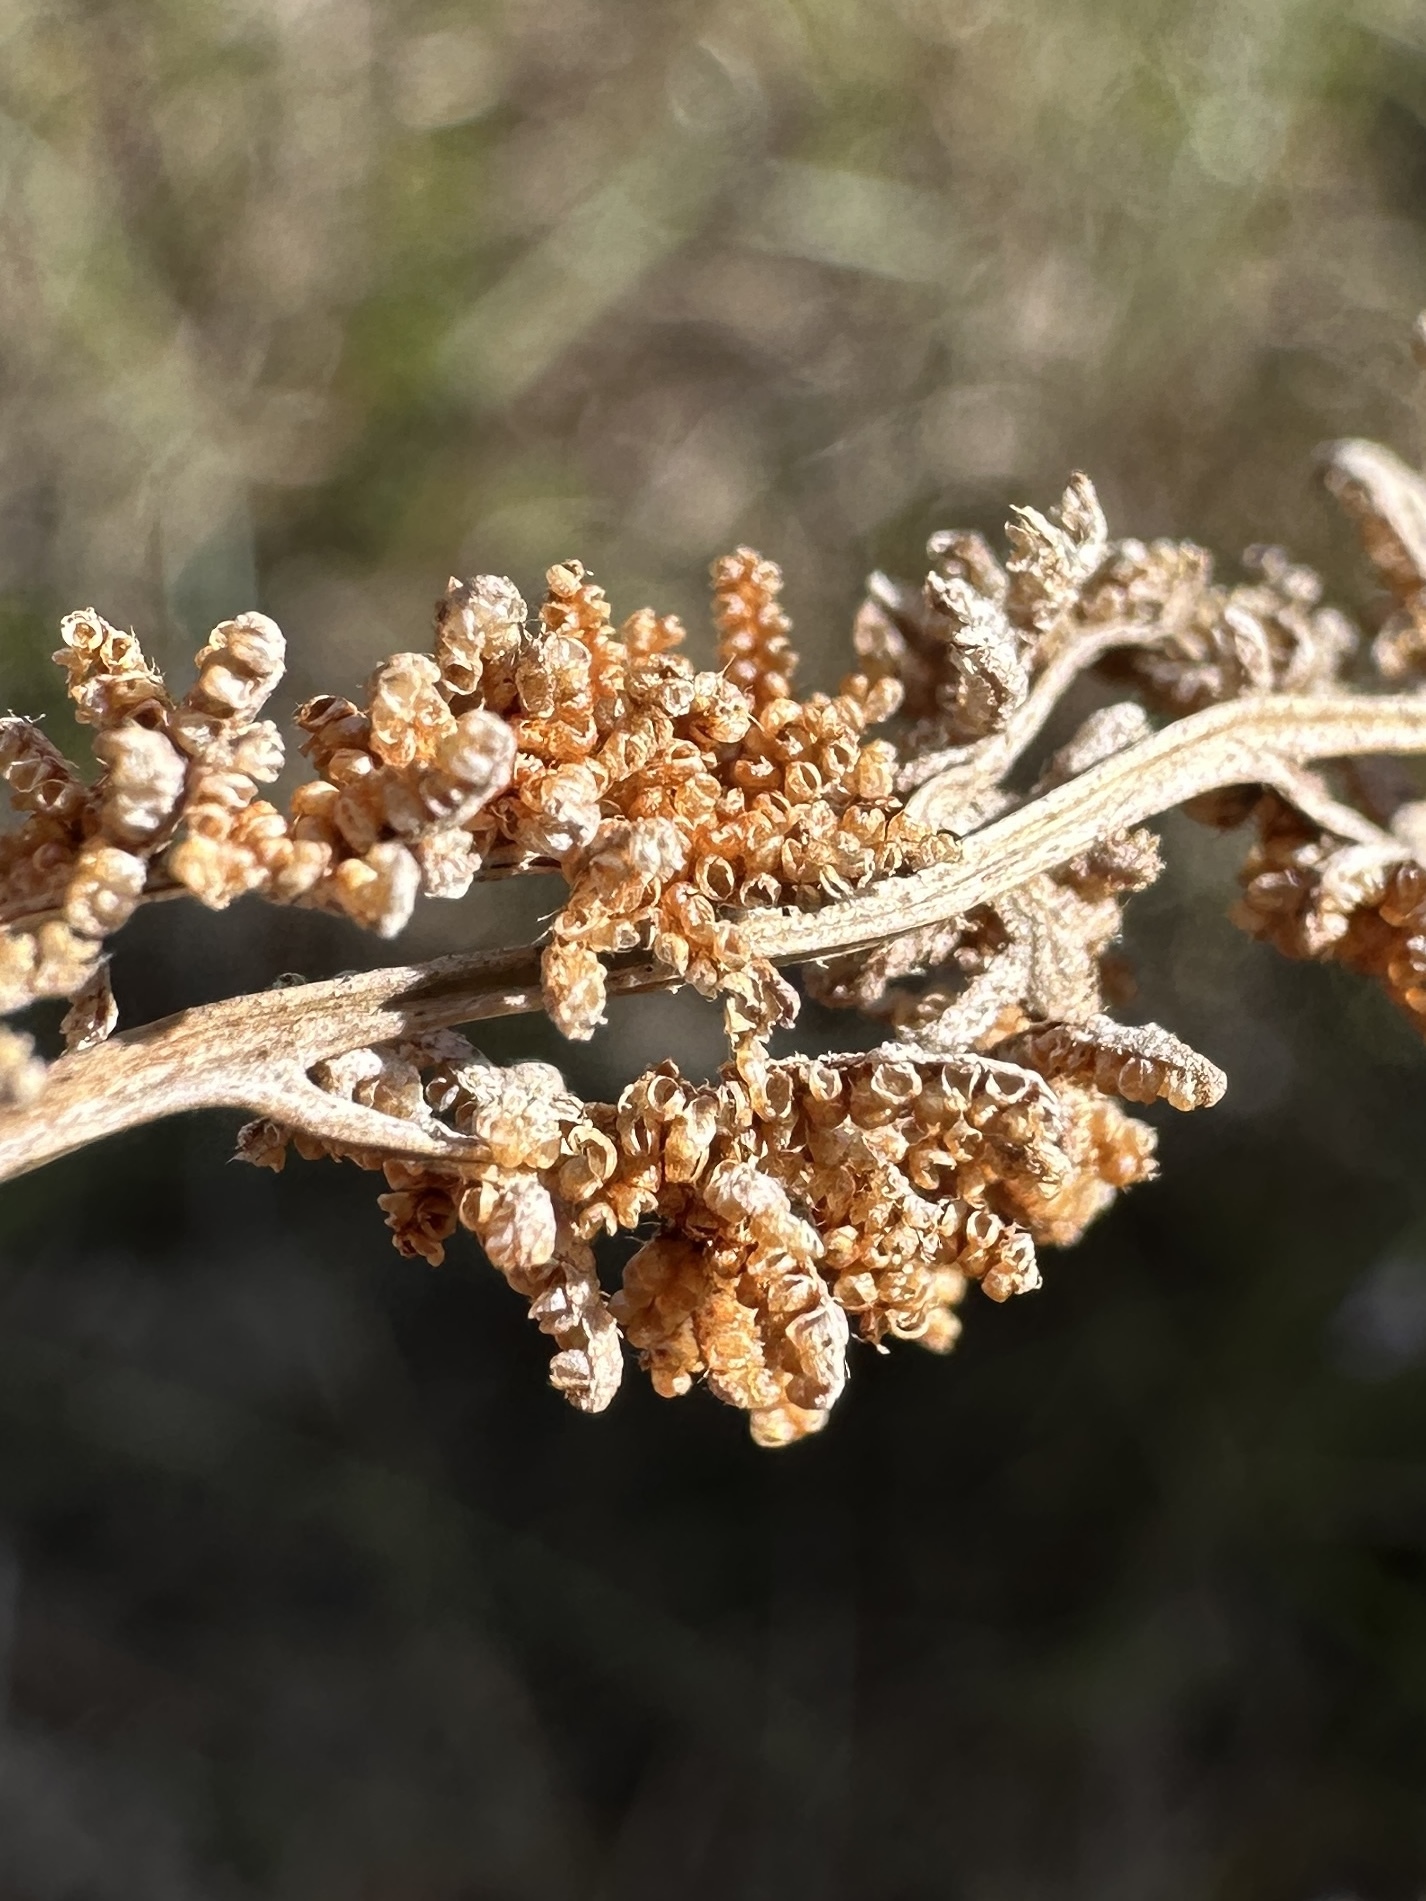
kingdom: Plantae
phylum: Tracheophyta
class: Polypodiopsida
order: Schizaeales
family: Anemiaceae
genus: Anemia
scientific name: Anemia adiantifolia
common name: Pine fern
